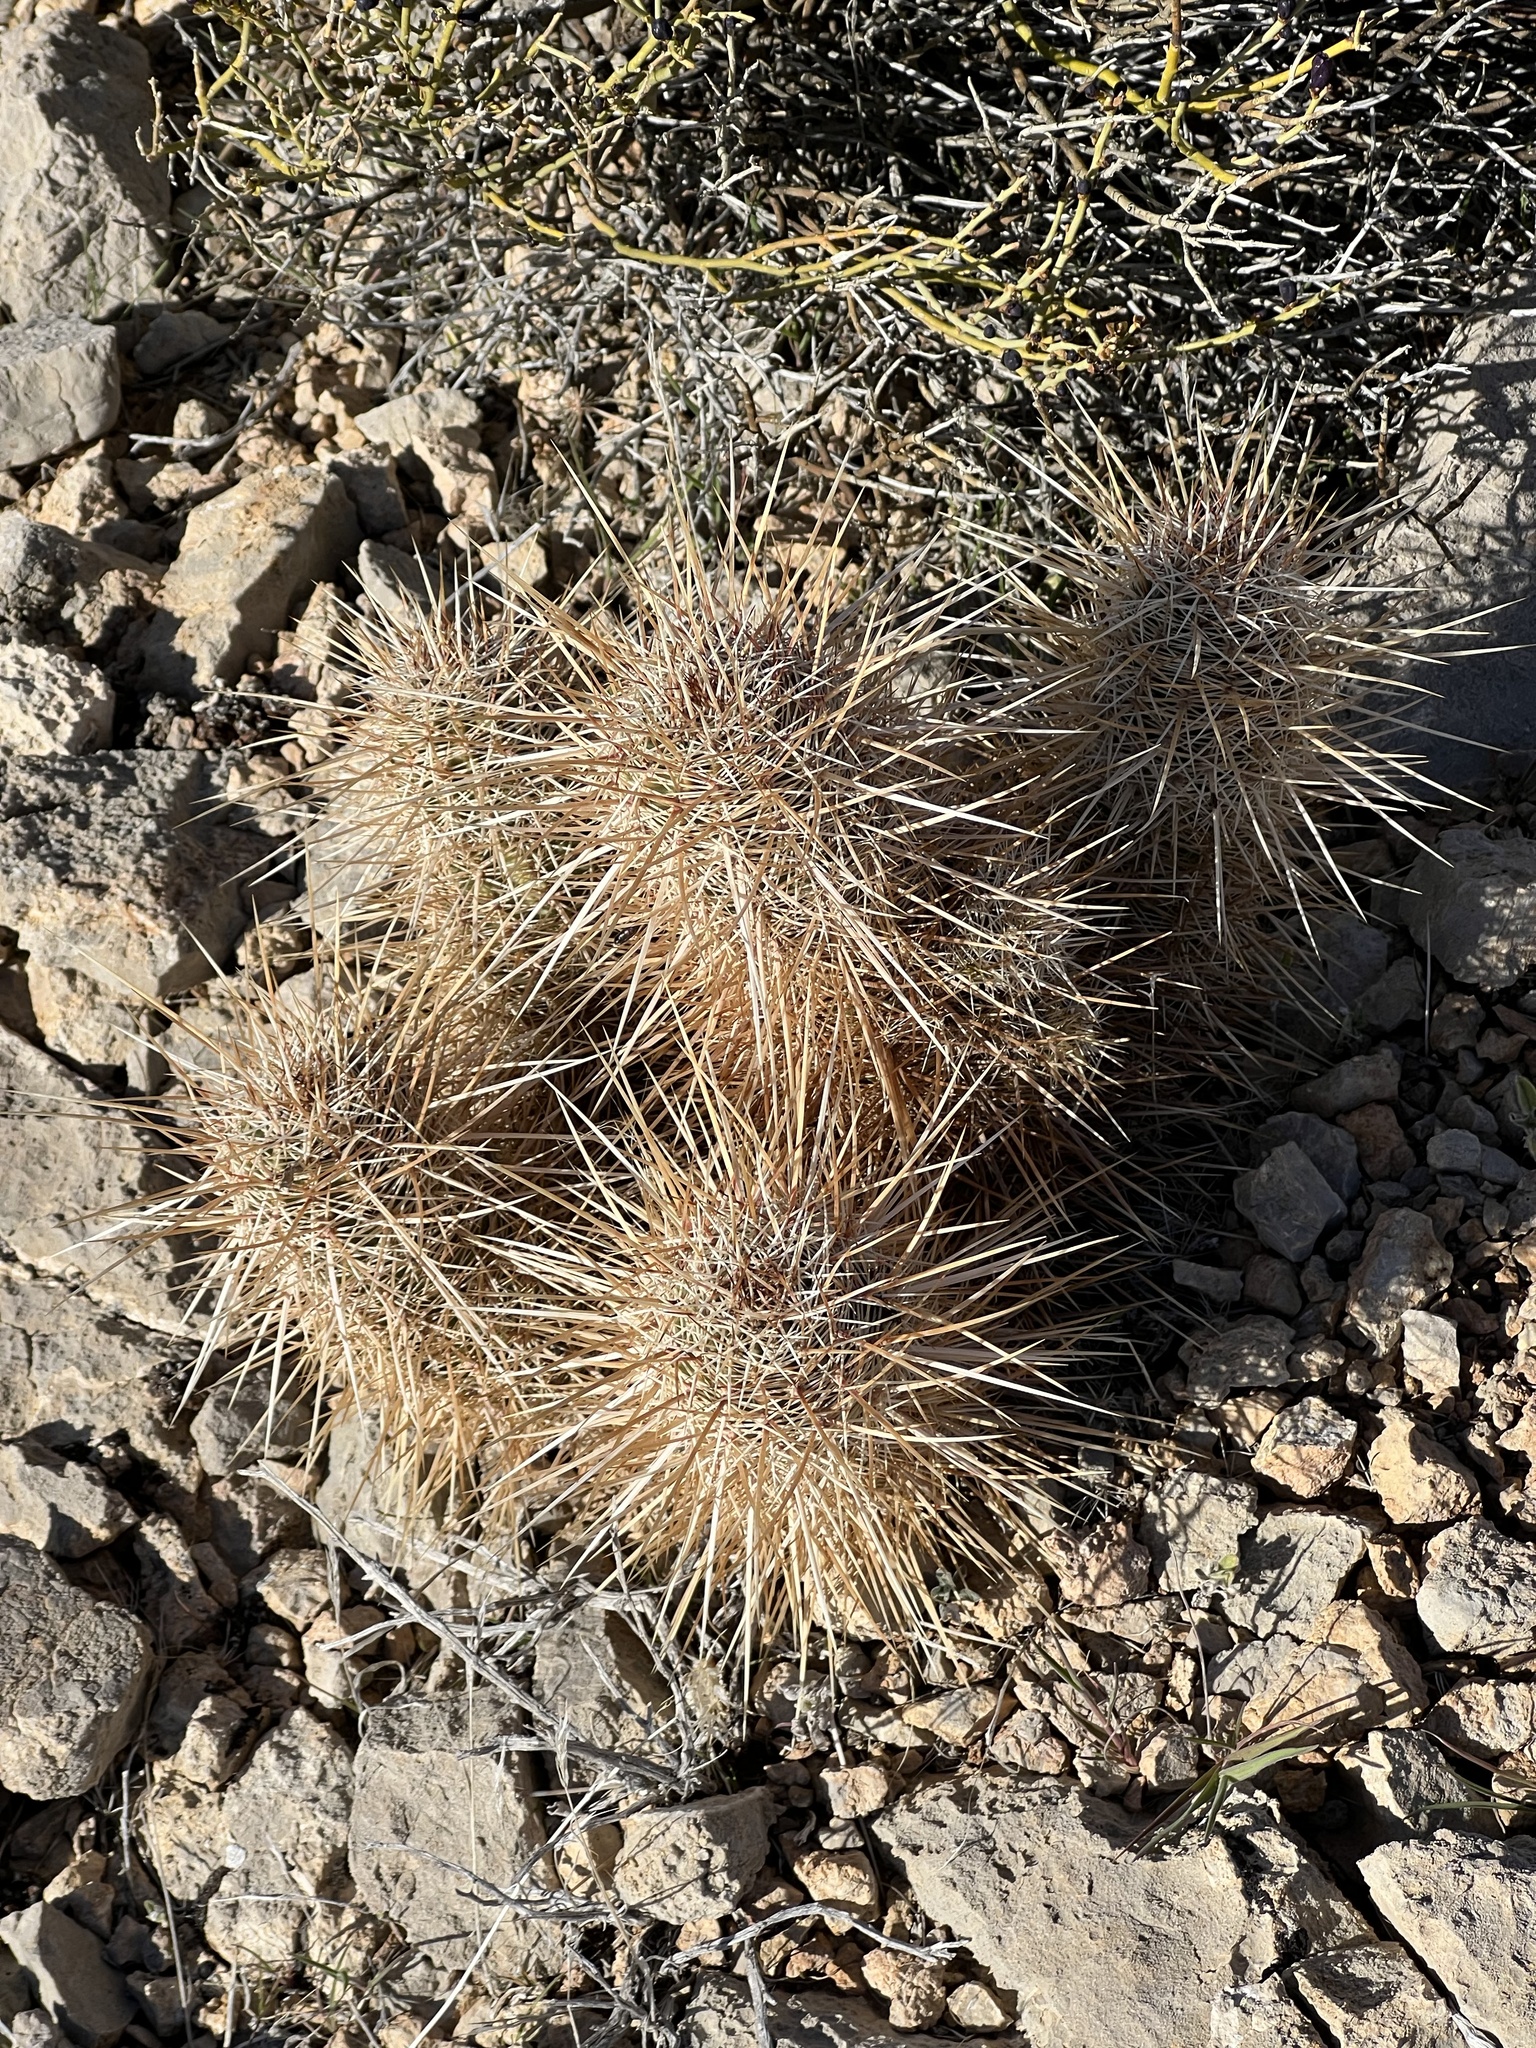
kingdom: Plantae
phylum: Tracheophyta
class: Magnoliopsida
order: Caryophyllales
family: Cactaceae
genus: Echinocereus
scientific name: Echinocereus engelmannii
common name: Engelmann's hedgehog cactus
